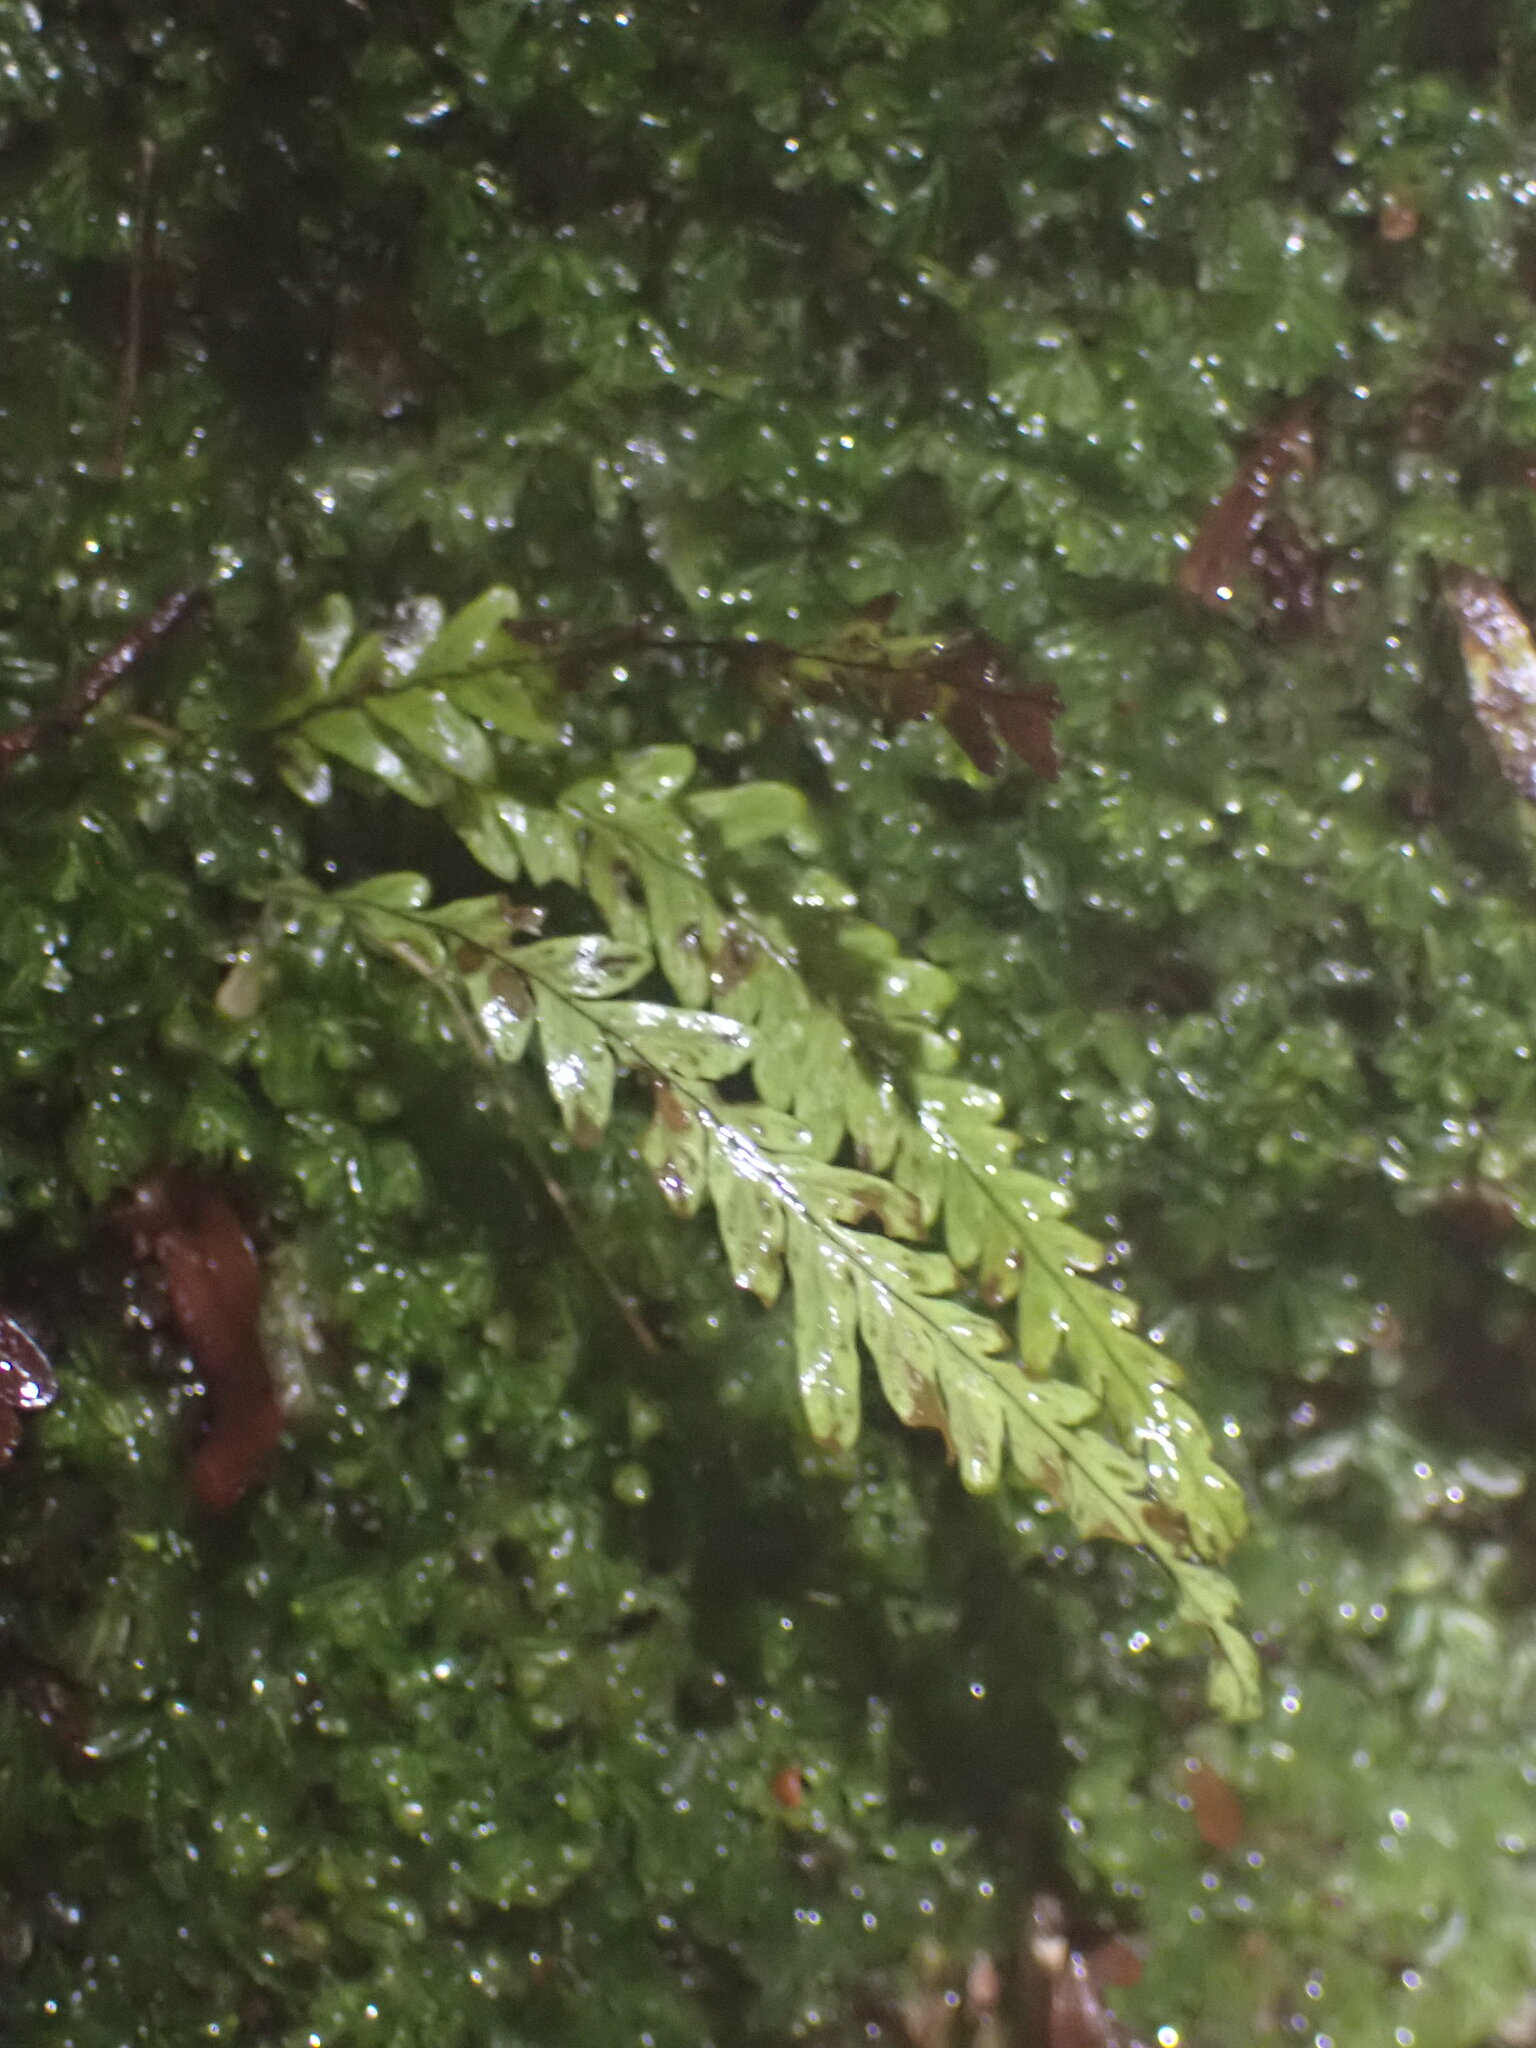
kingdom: Plantae
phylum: Tracheophyta
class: Polypodiopsida
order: Polypodiales
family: Polypodiaceae
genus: Notogrammitis
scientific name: Notogrammitis heterophylla
